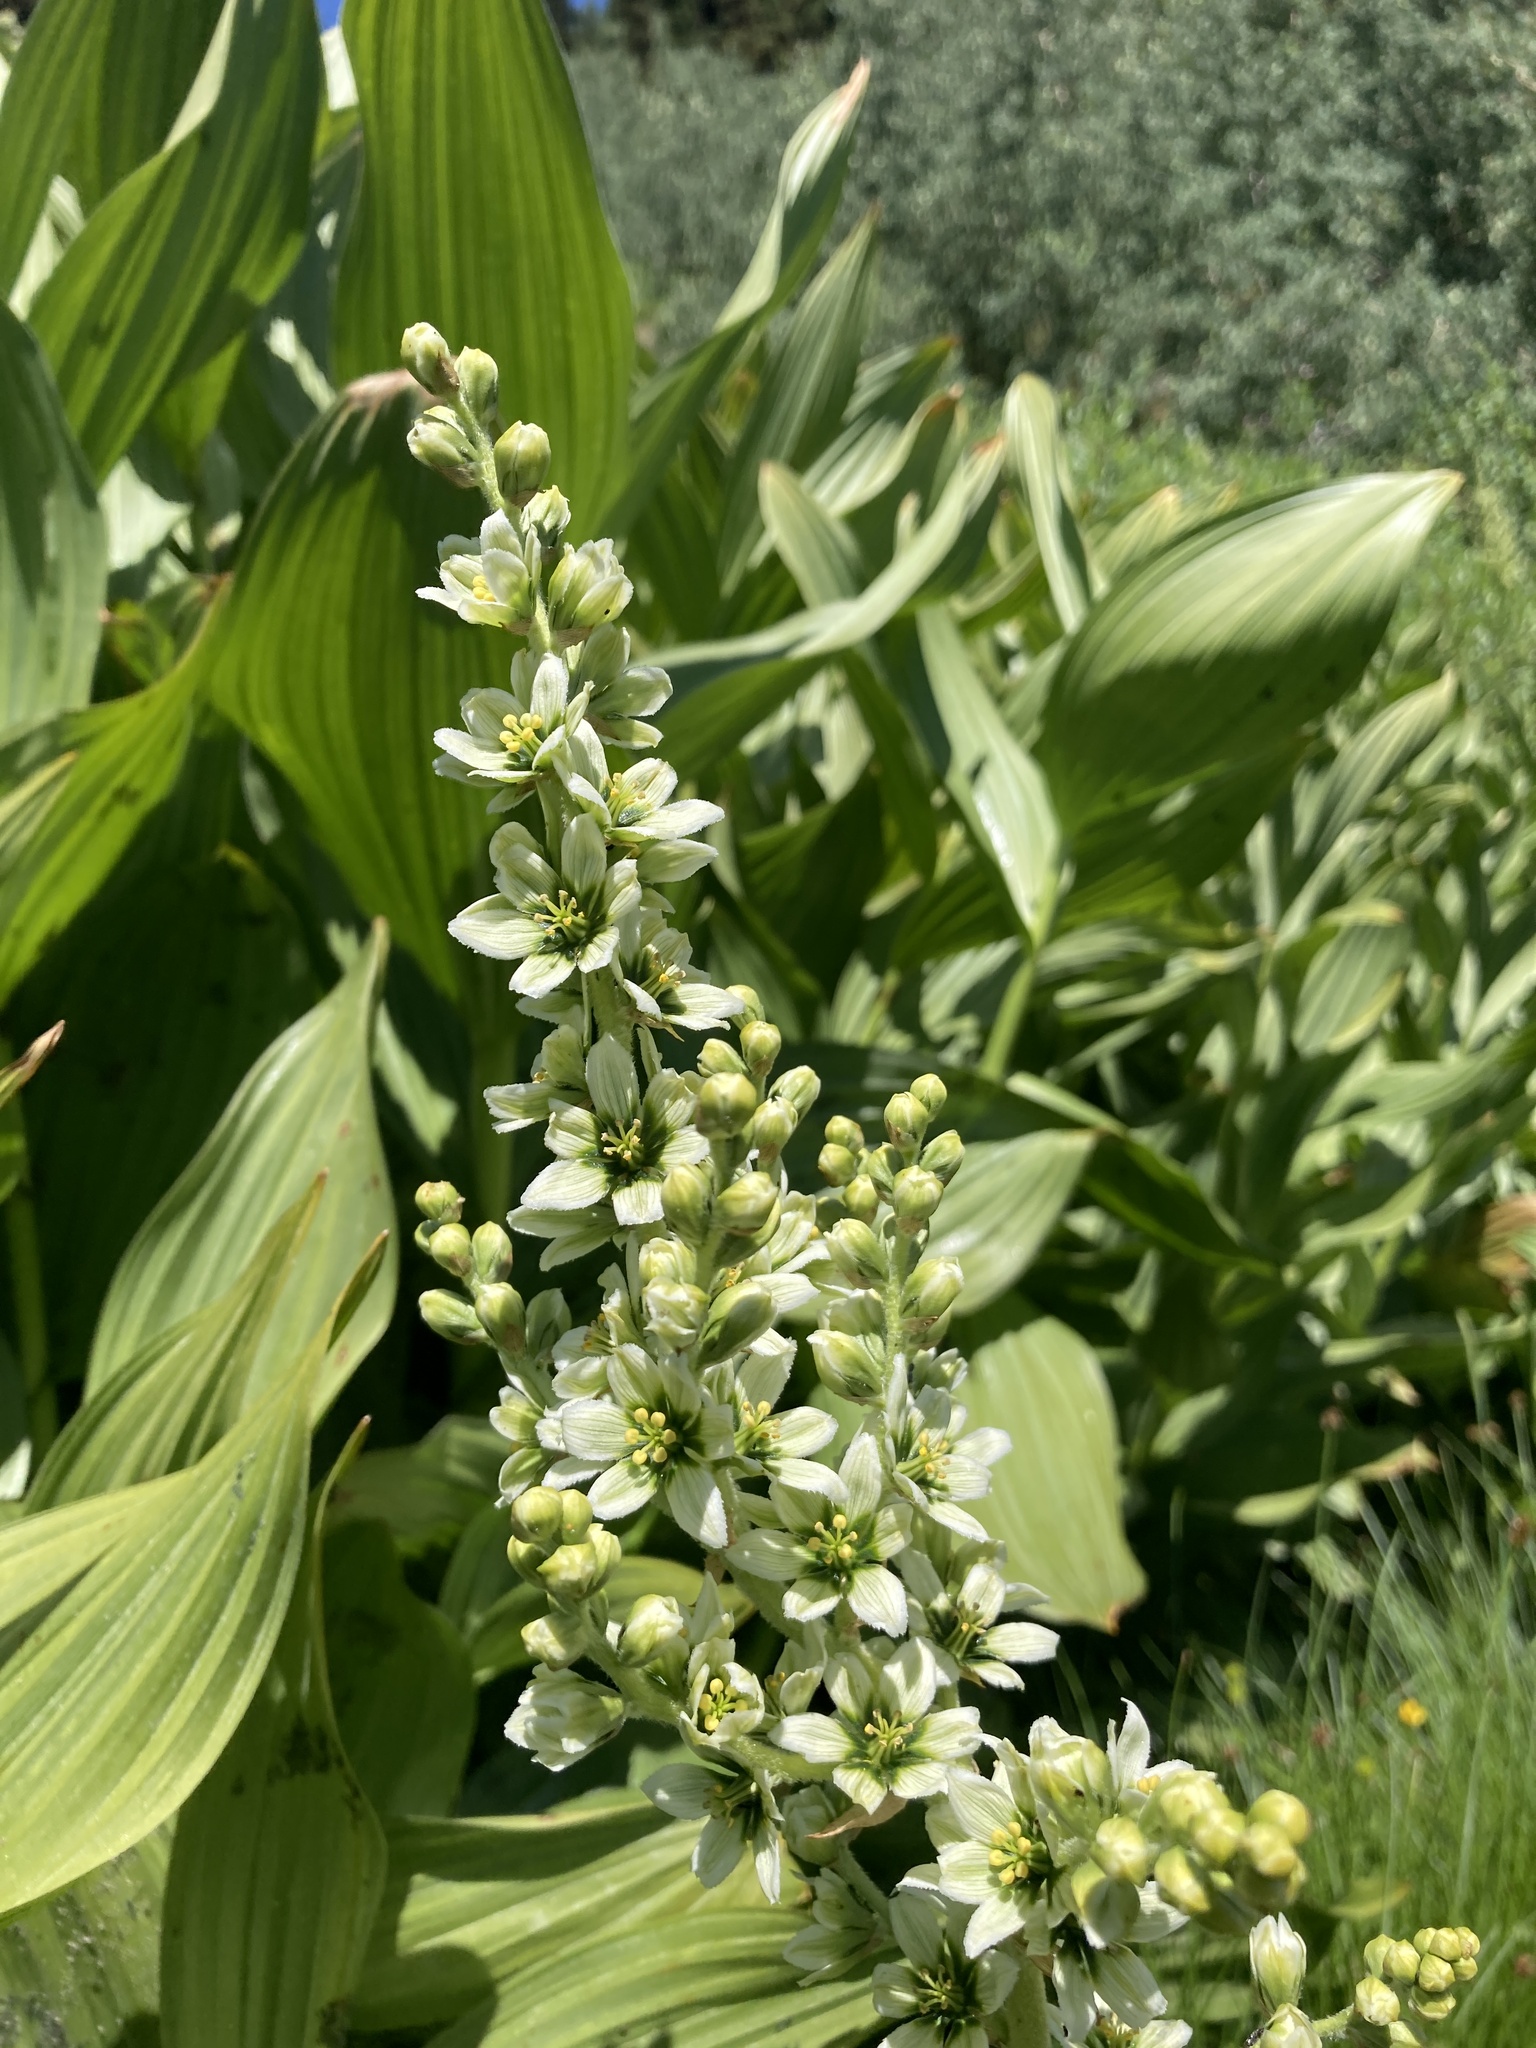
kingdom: Plantae
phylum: Tracheophyta
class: Liliopsida
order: Liliales
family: Melanthiaceae
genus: Veratrum
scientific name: Veratrum californicum
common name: California veratrum
